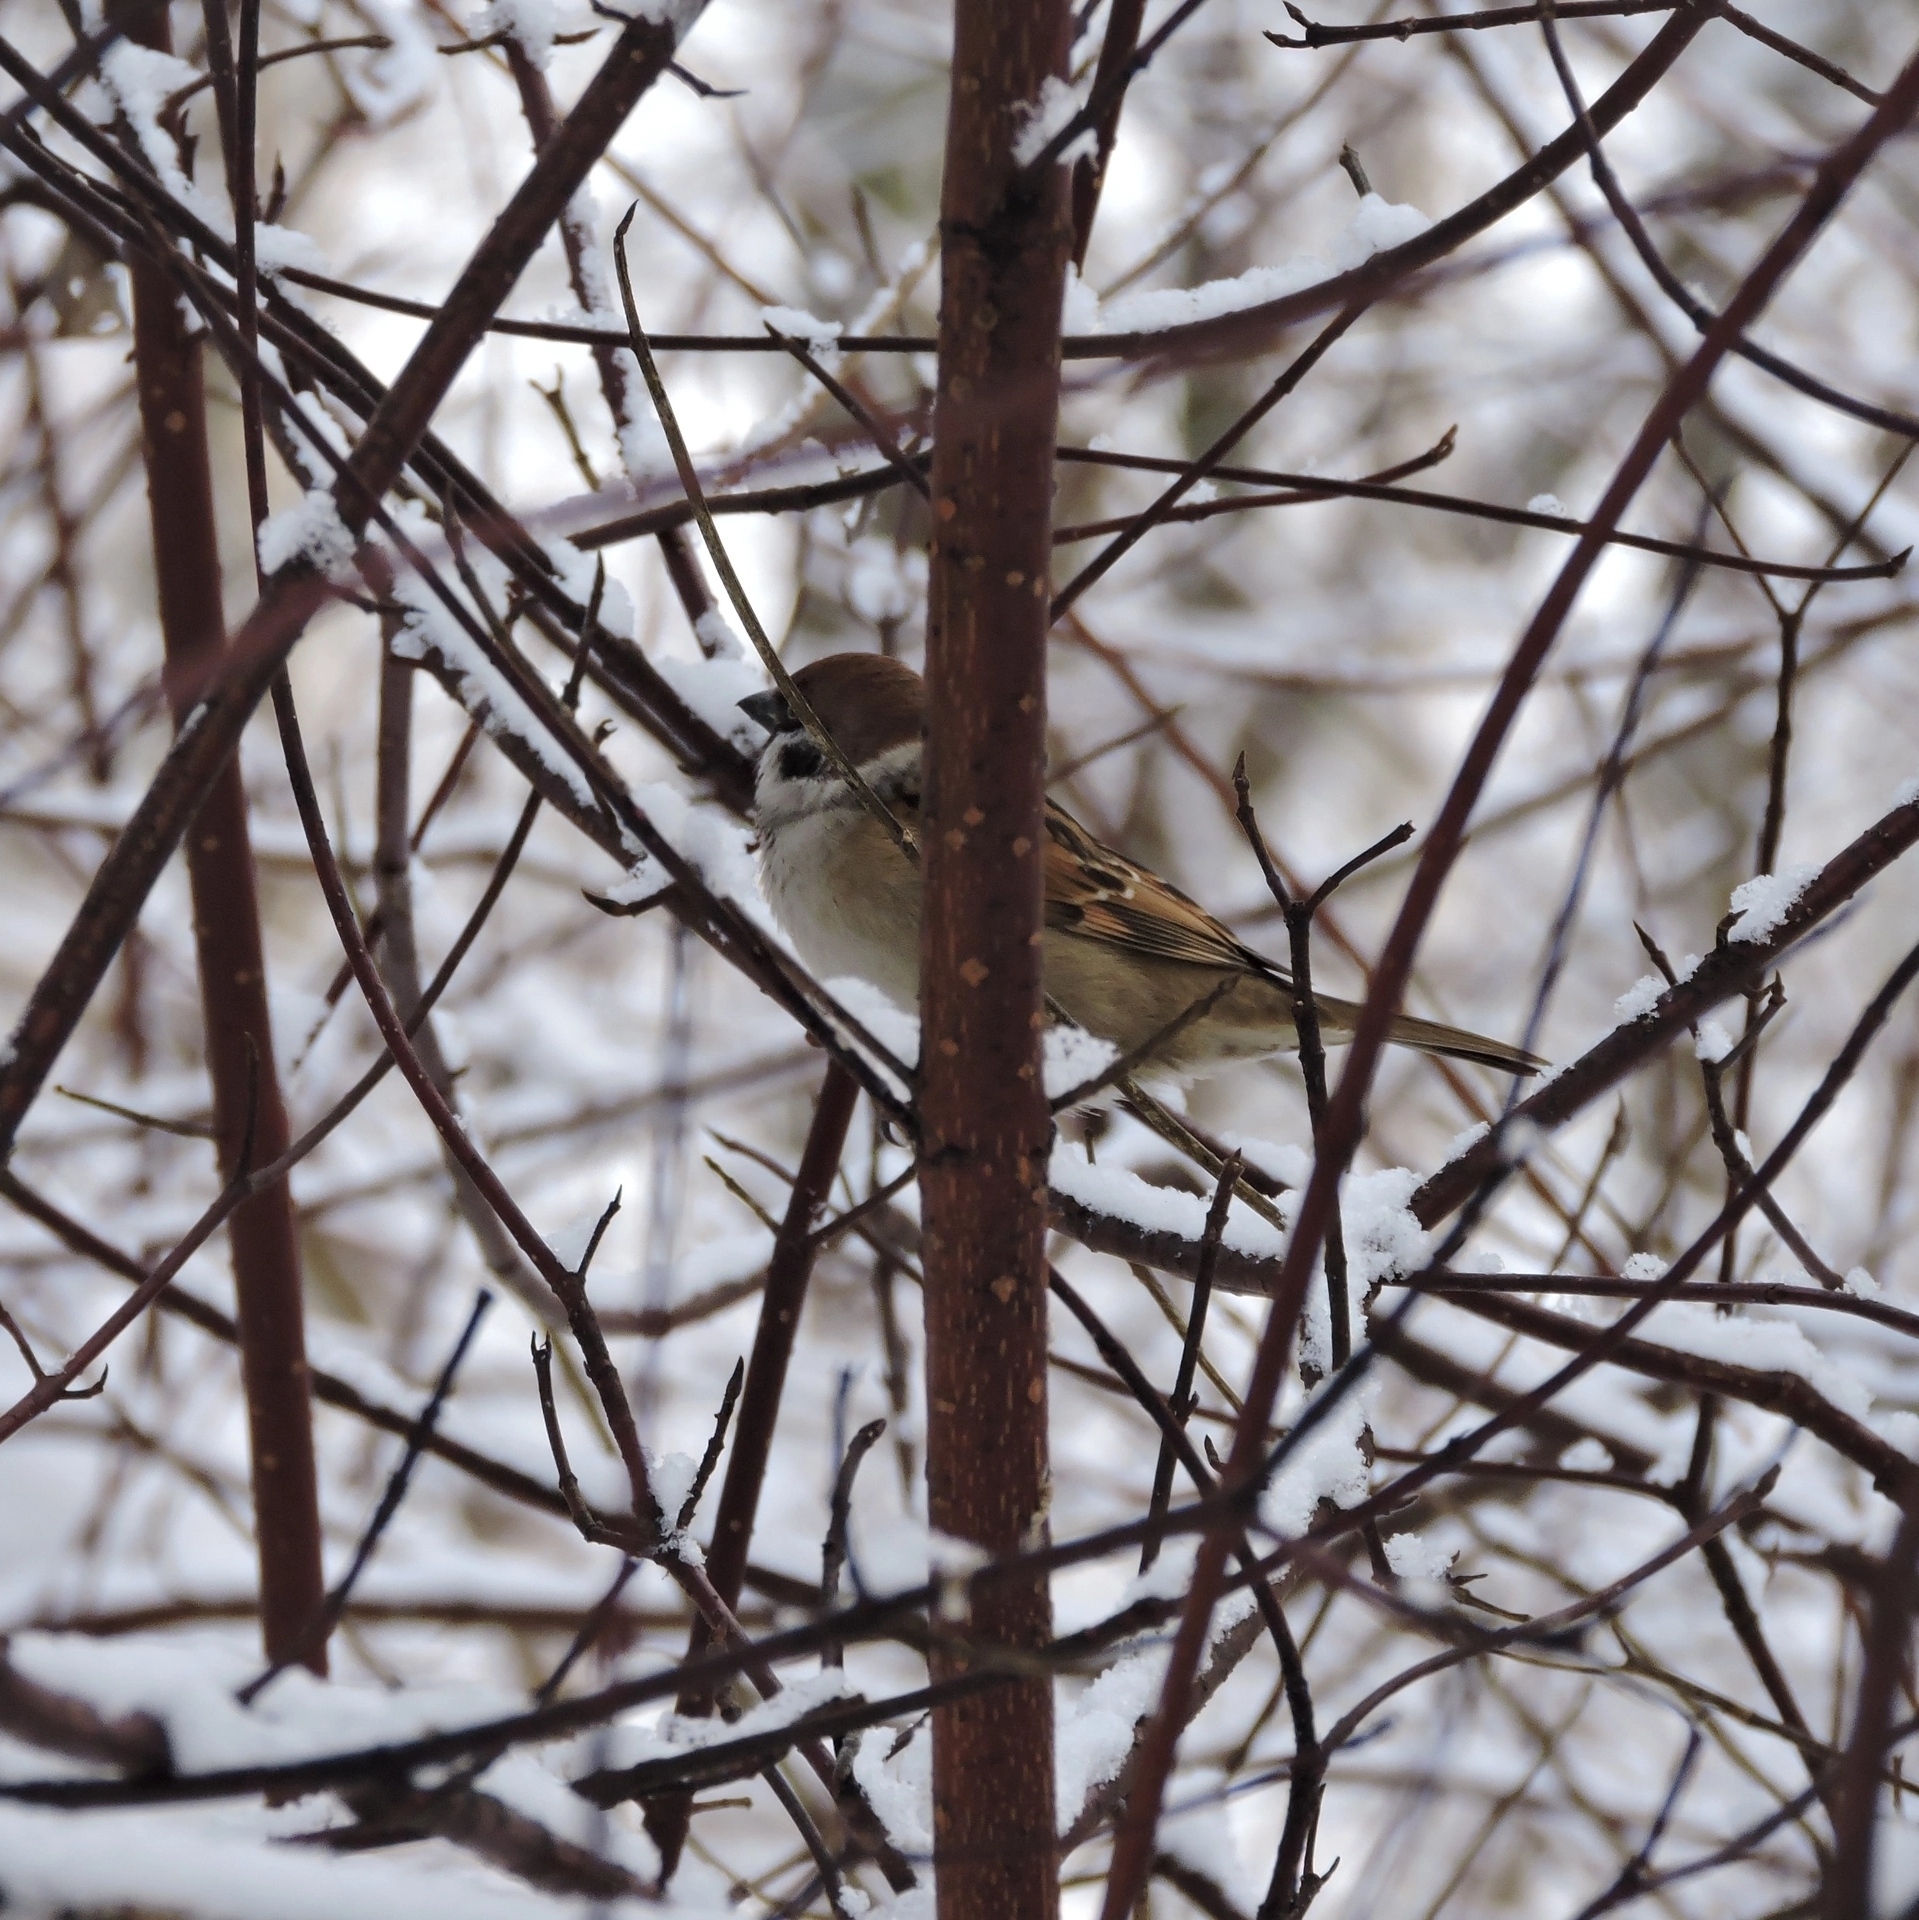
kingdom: Animalia
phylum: Chordata
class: Aves
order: Passeriformes
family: Passeridae
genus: Passer
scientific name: Passer montanus
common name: Eurasian tree sparrow
